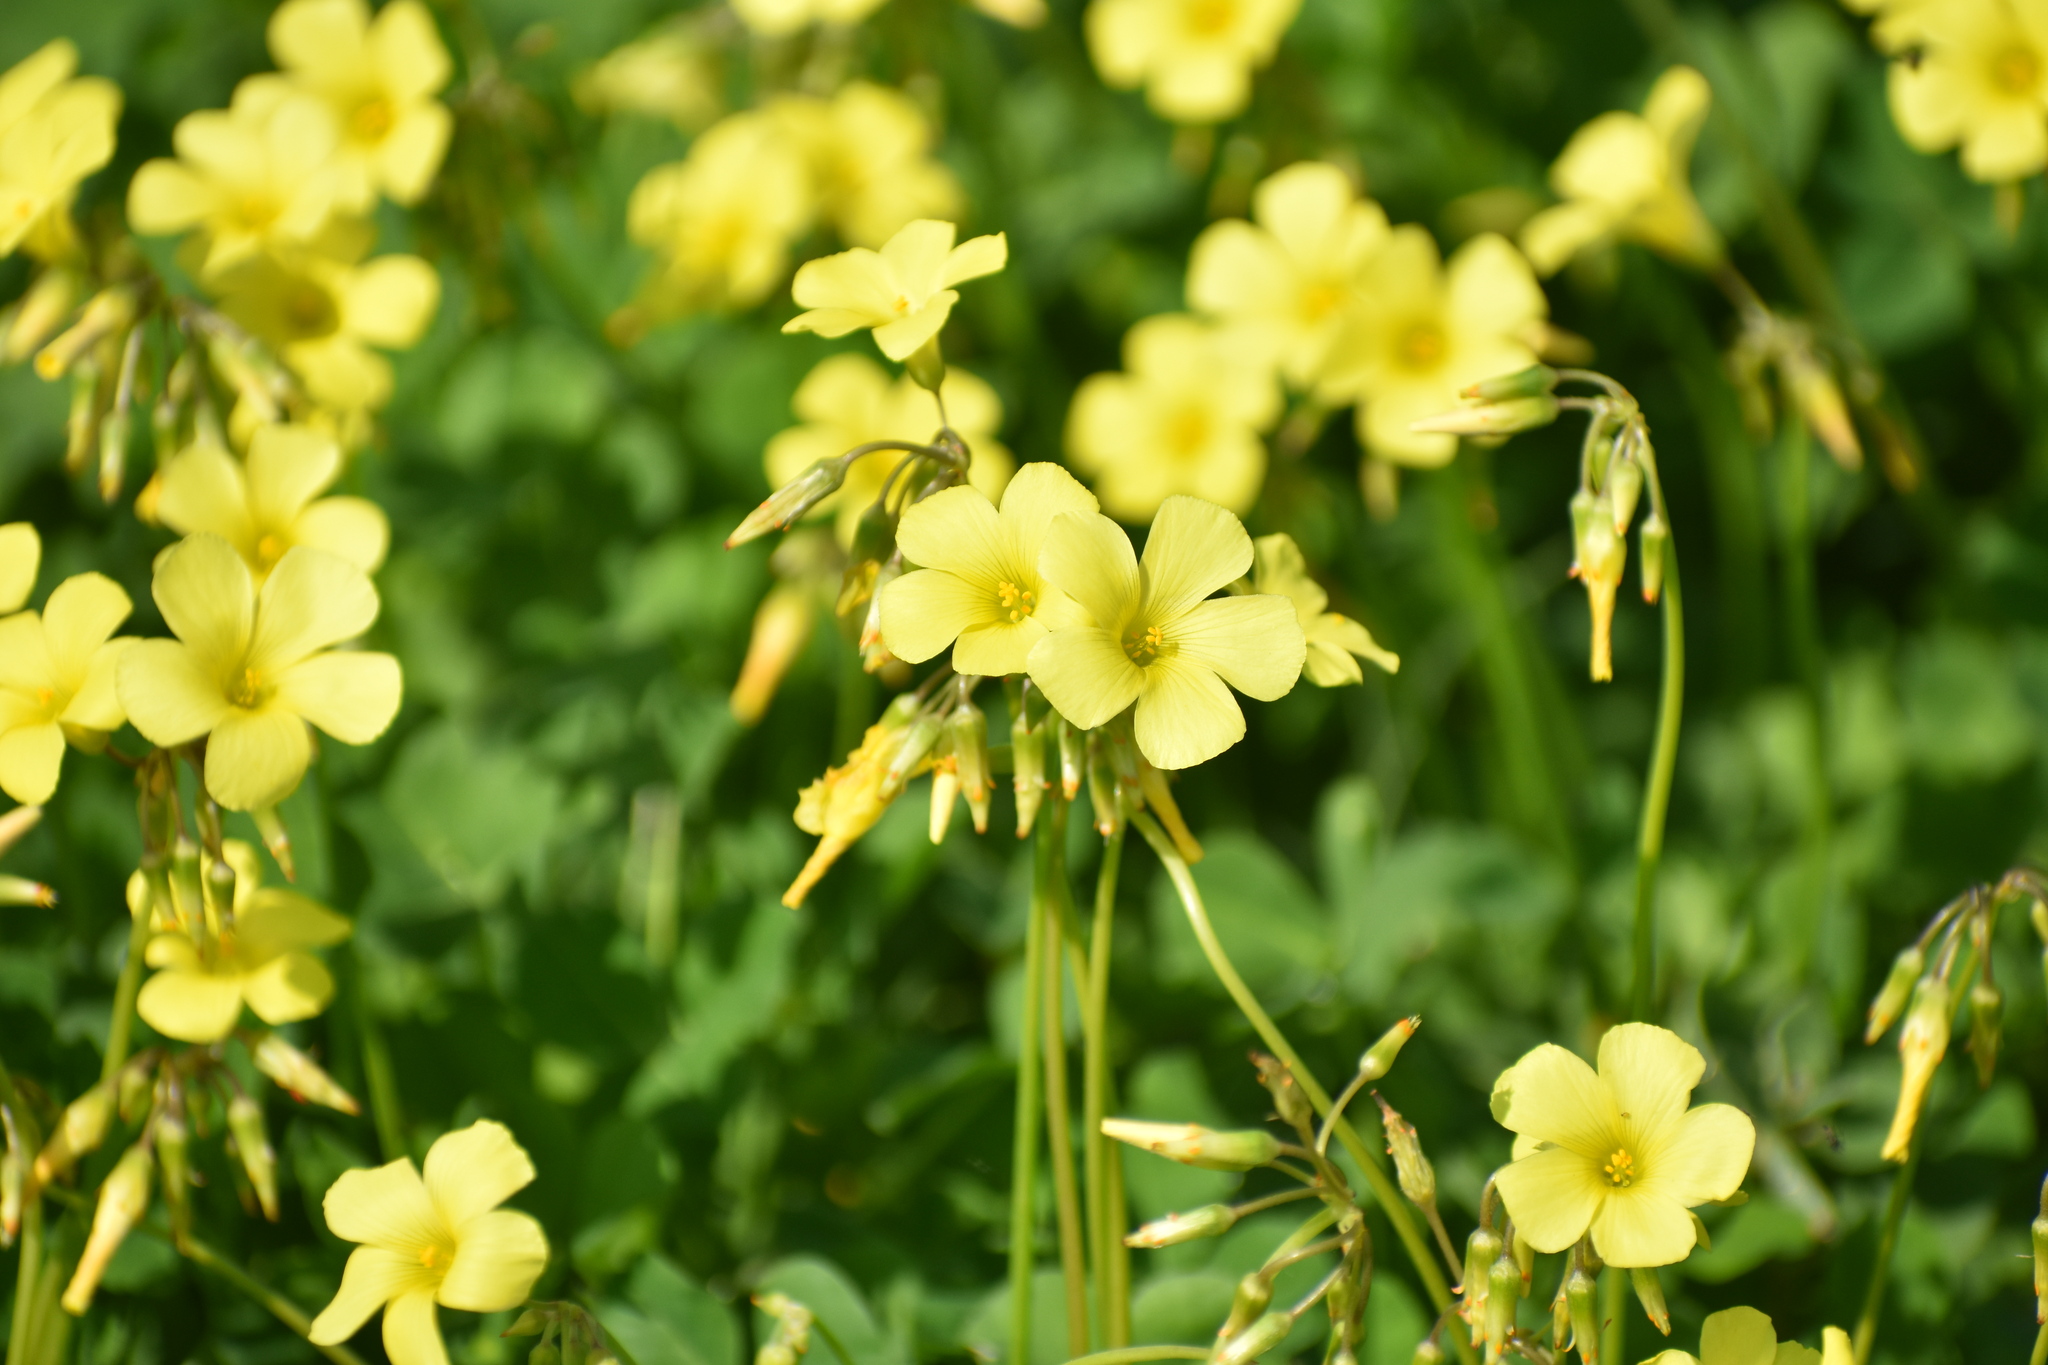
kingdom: Plantae
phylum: Tracheophyta
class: Magnoliopsida
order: Oxalidales
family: Oxalidaceae
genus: Oxalis
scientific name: Oxalis pes-caprae
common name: Bermuda-buttercup
